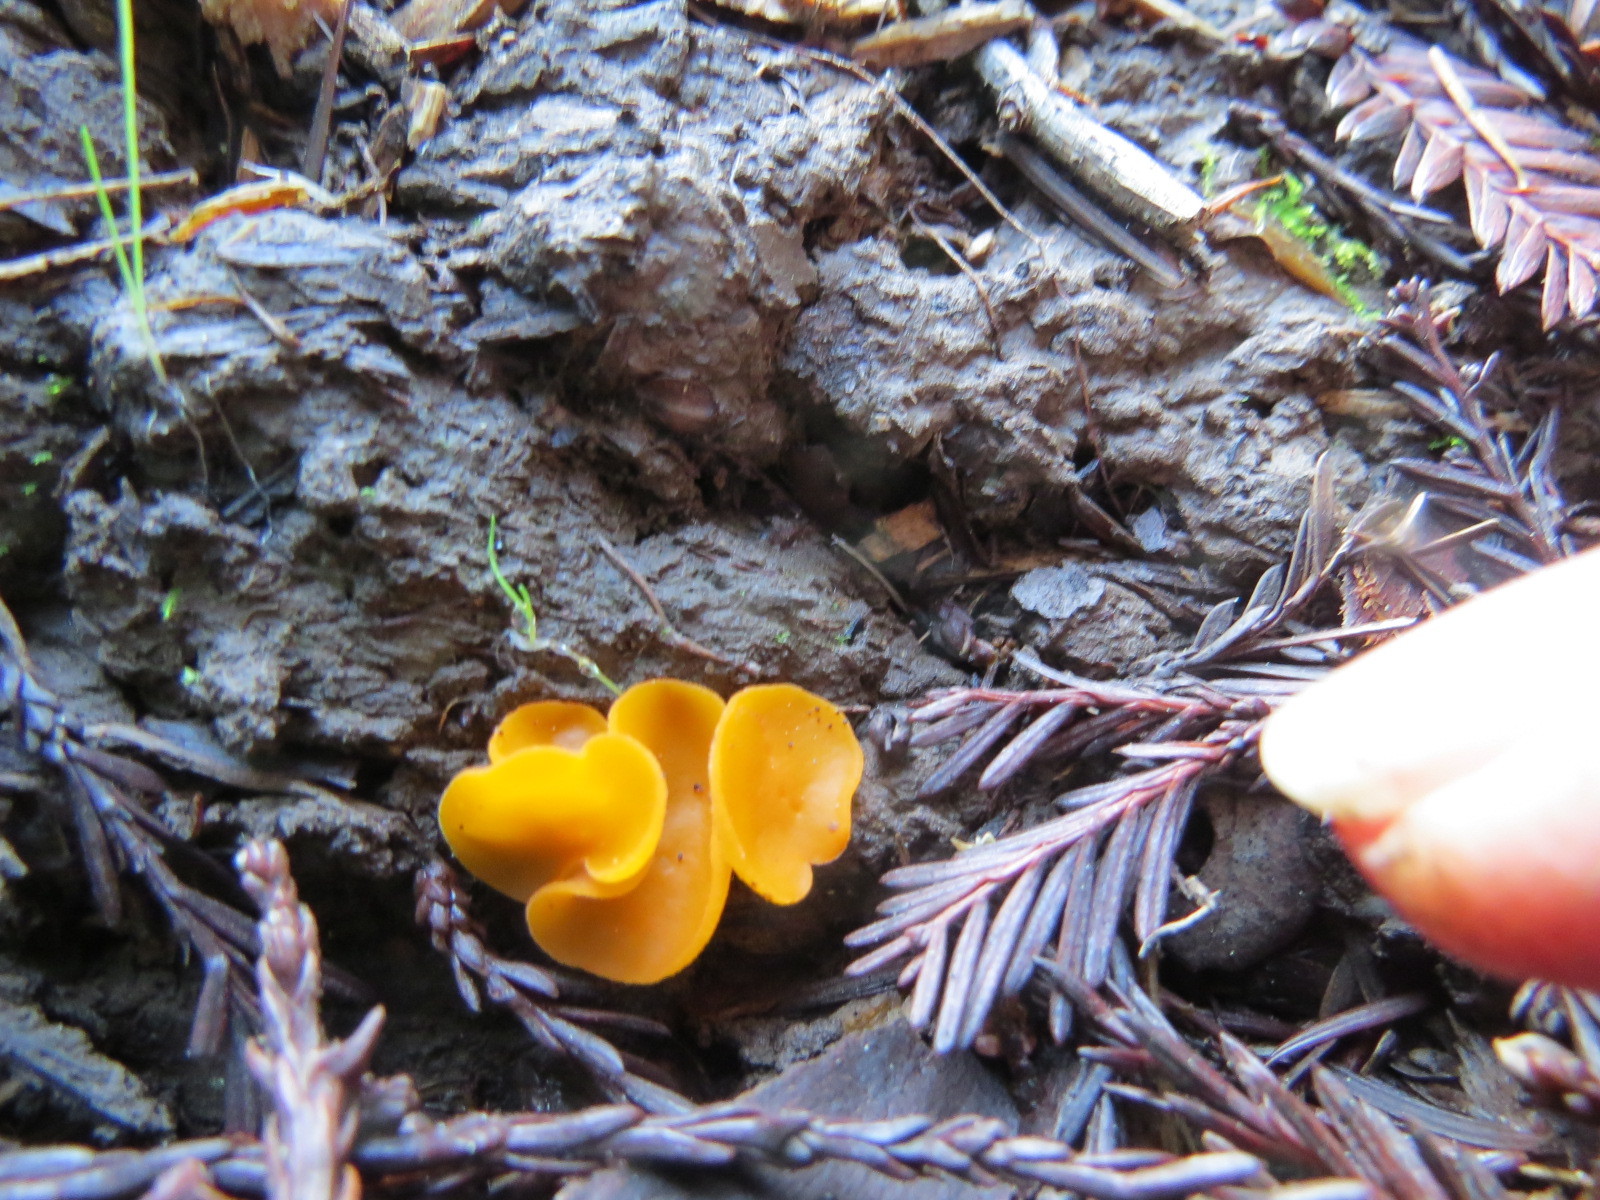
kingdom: Fungi
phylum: Ascomycota
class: Pezizomycetes
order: Pezizales
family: Pyronemataceae
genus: Aleuria
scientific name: Aleuria aurantia
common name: Orange peel fungus
